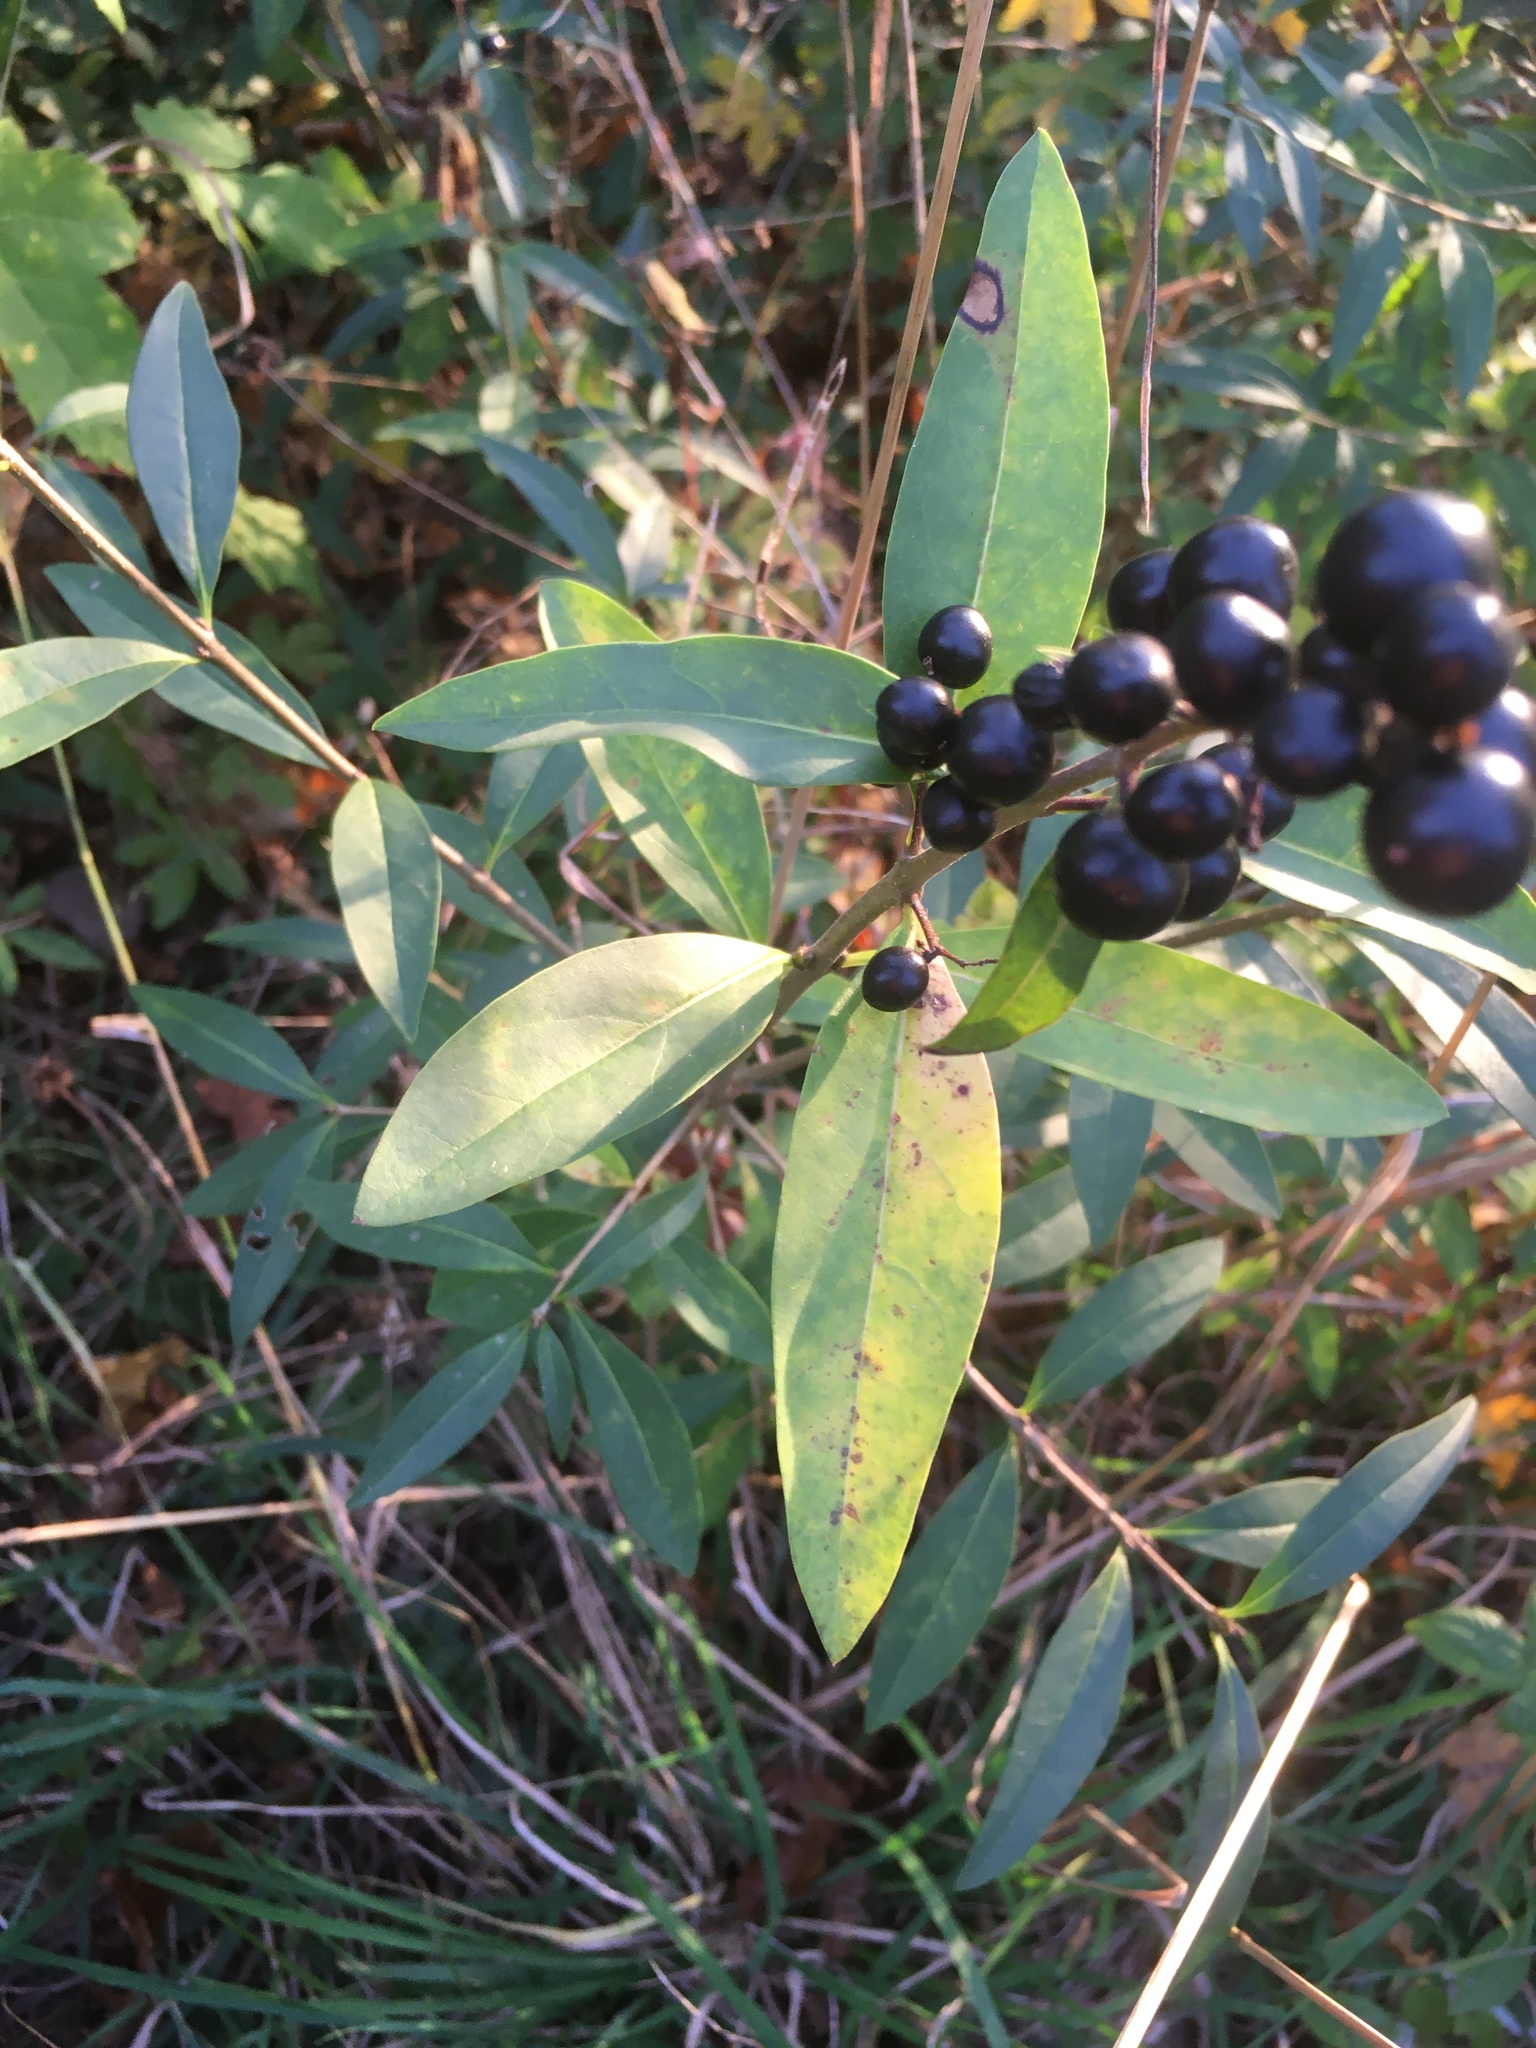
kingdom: Plantae
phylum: Tracheophyta
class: Magnoliopsida
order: Lamiales
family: Oleaceae
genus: Ligustrum
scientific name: Ligustrum vulgare
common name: Wild privet
